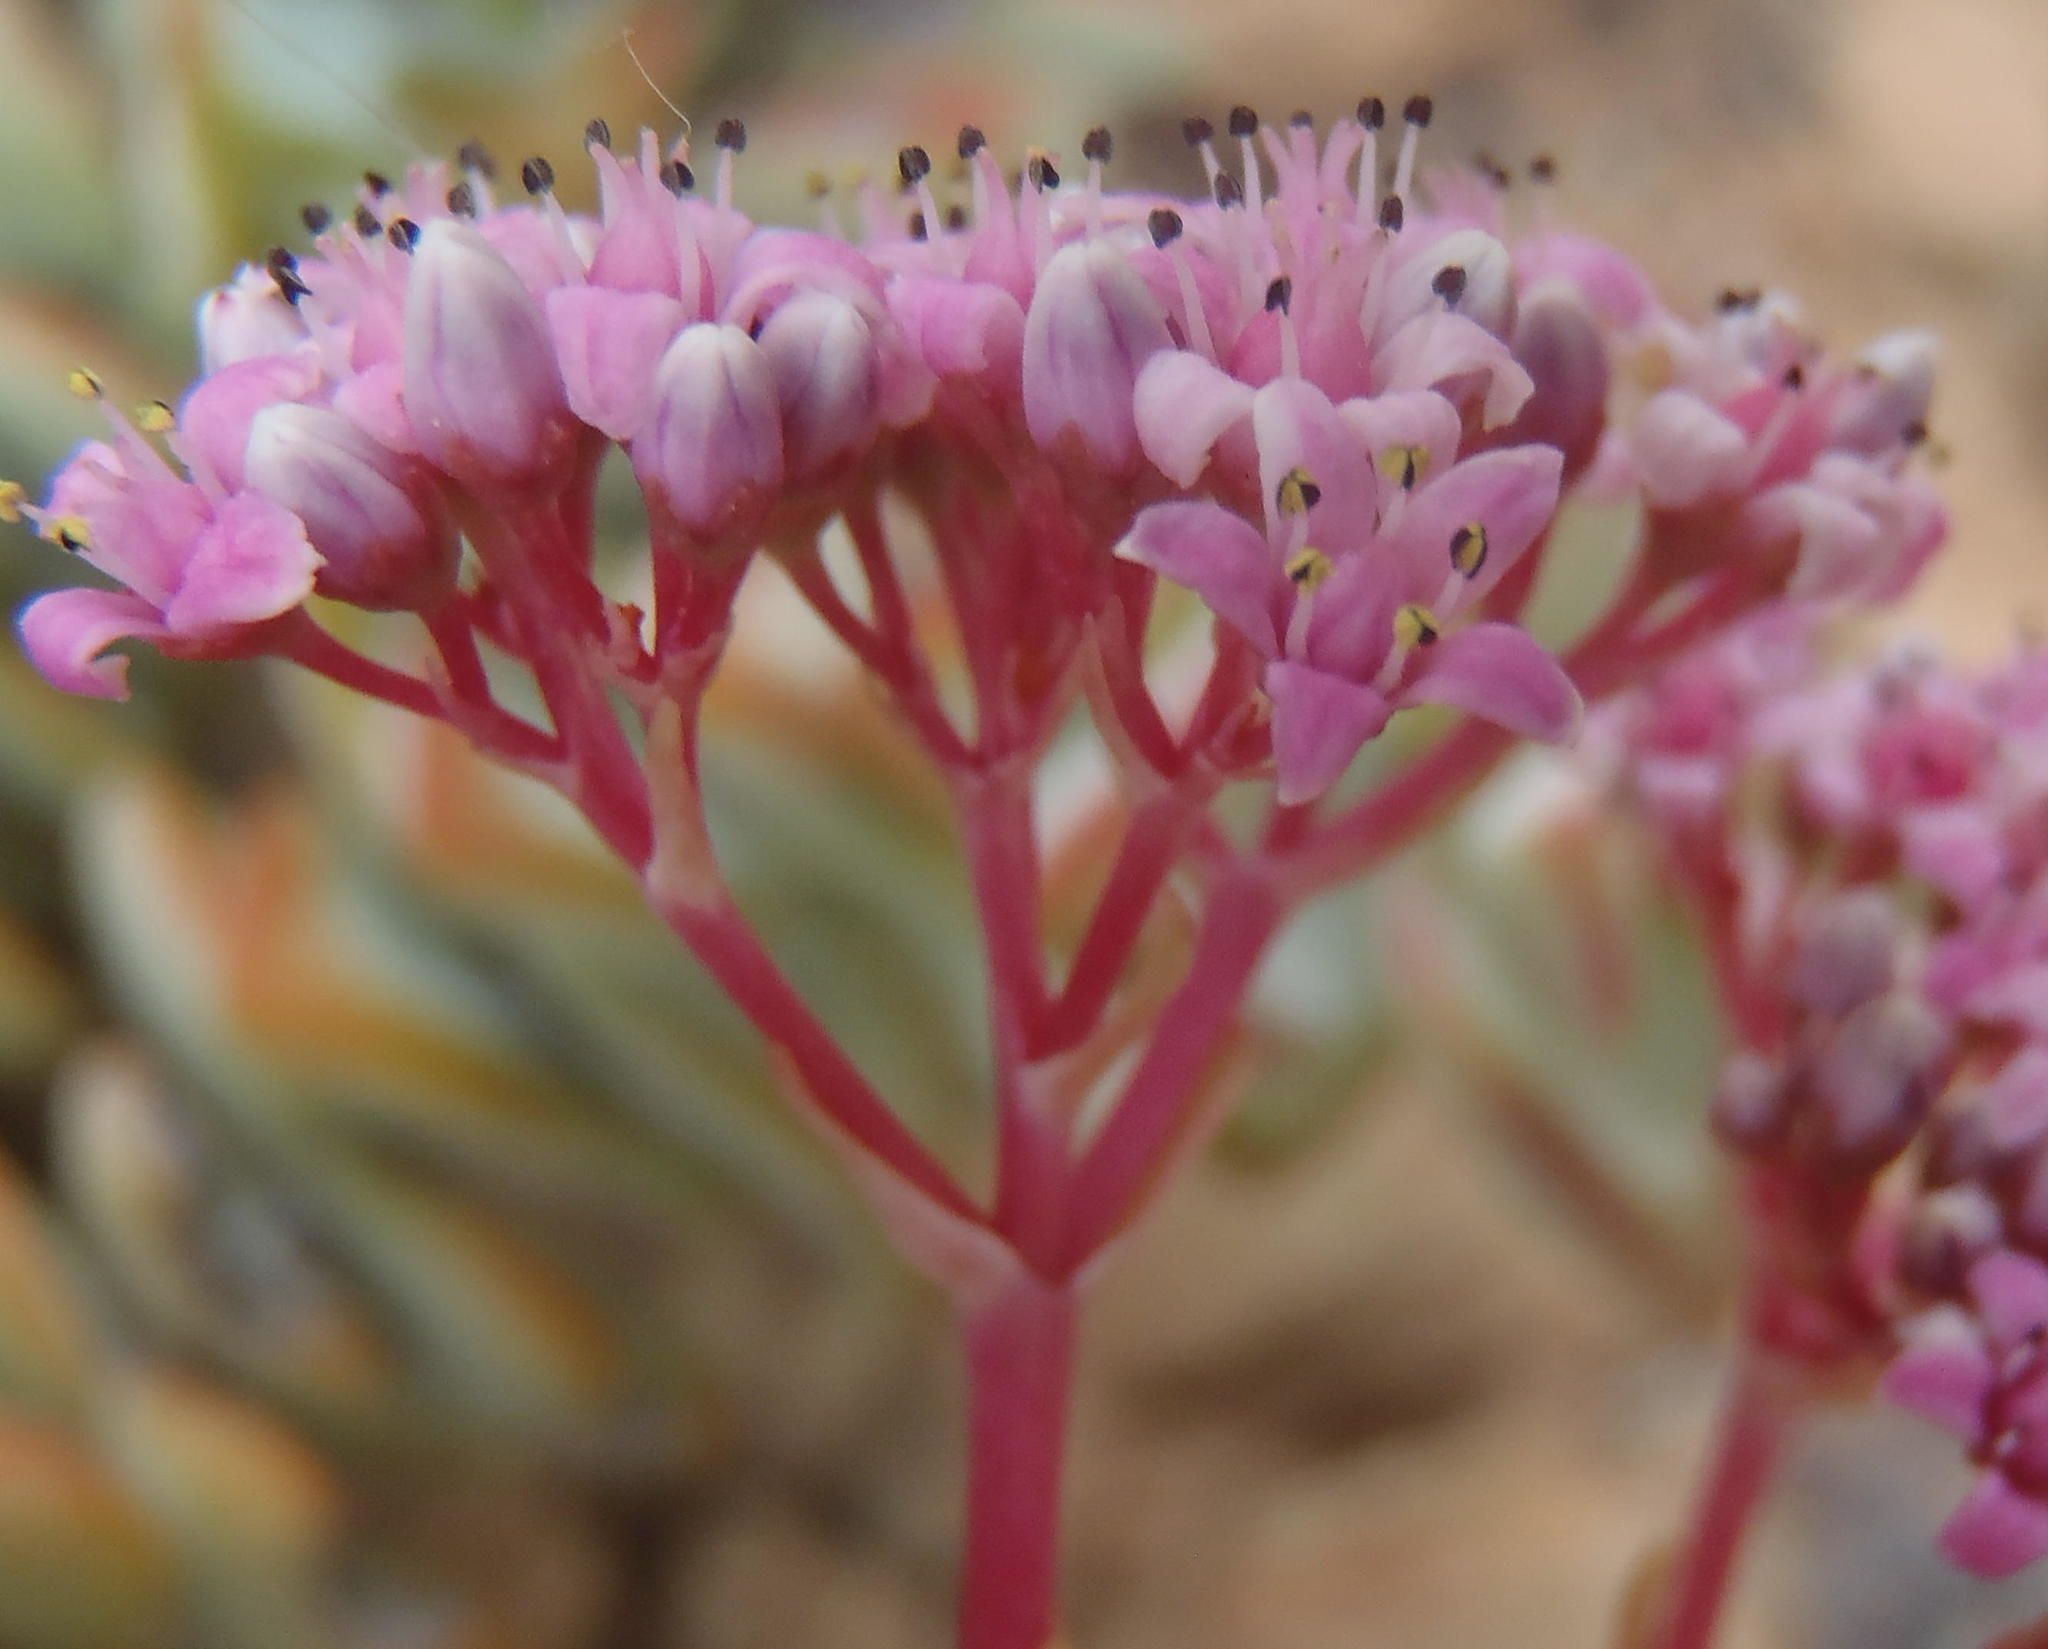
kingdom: Plantae
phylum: Tracheophyta
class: Magnoliopsida
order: Saxifragales
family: Crassulaceae
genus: Crassula
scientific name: Crassula rupestris
